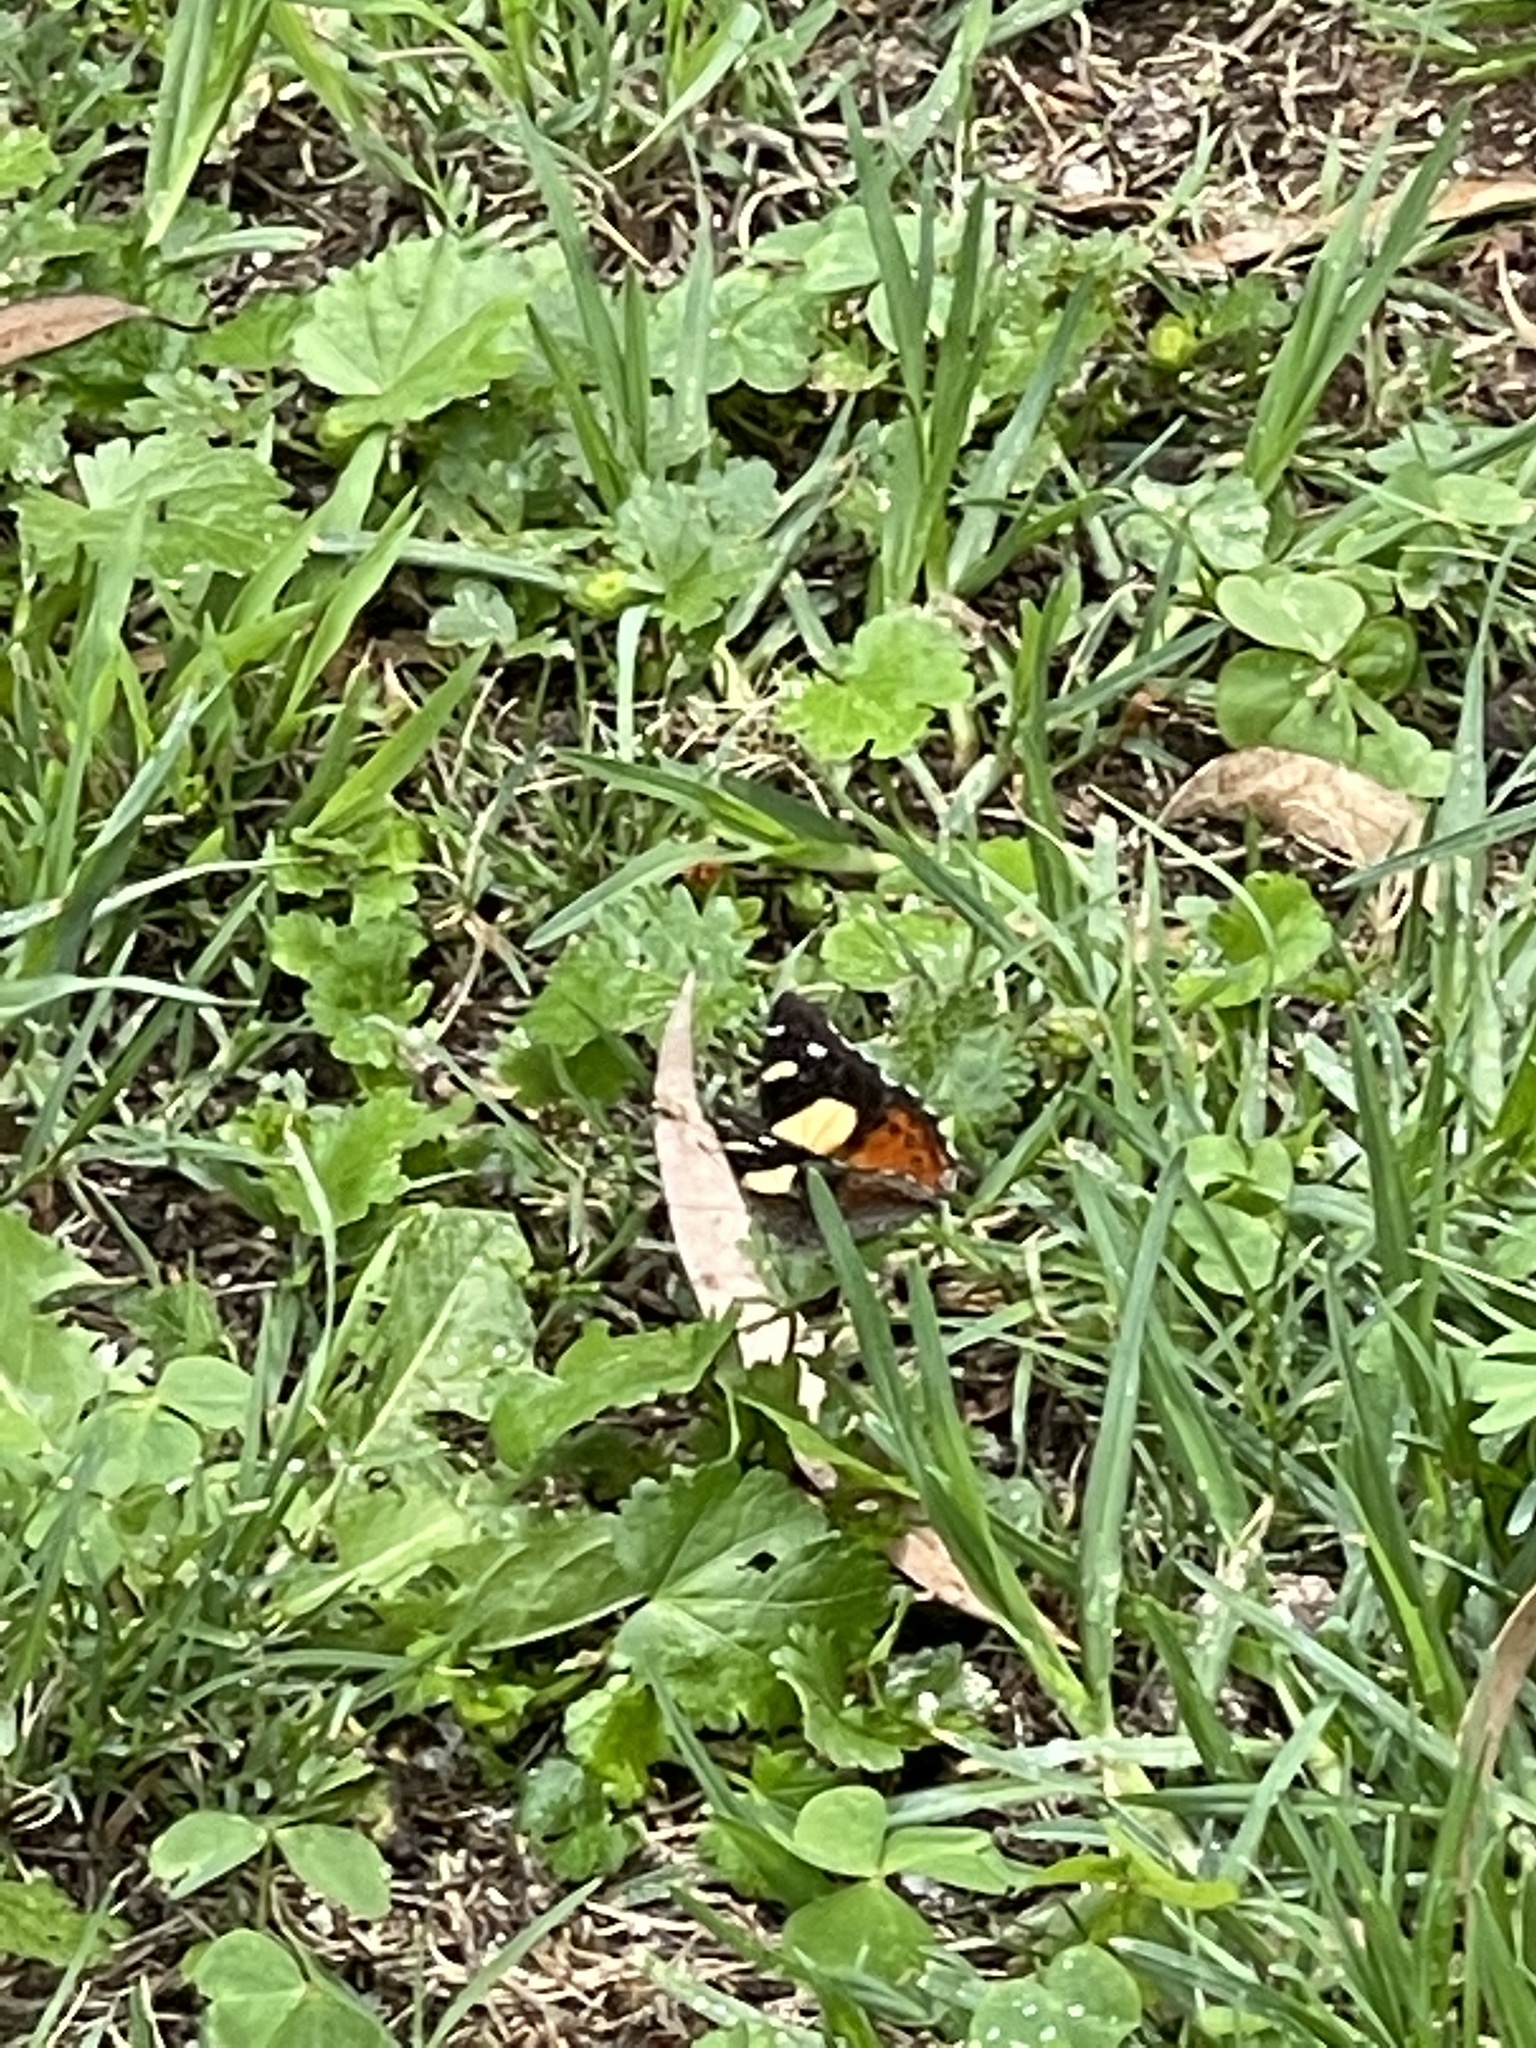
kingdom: Animalia
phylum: Arthropoda
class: Insecta
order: Lepidoptera
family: Nymphalidae
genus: Vanessa
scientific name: Vanessa itea
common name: Yellow admiral
